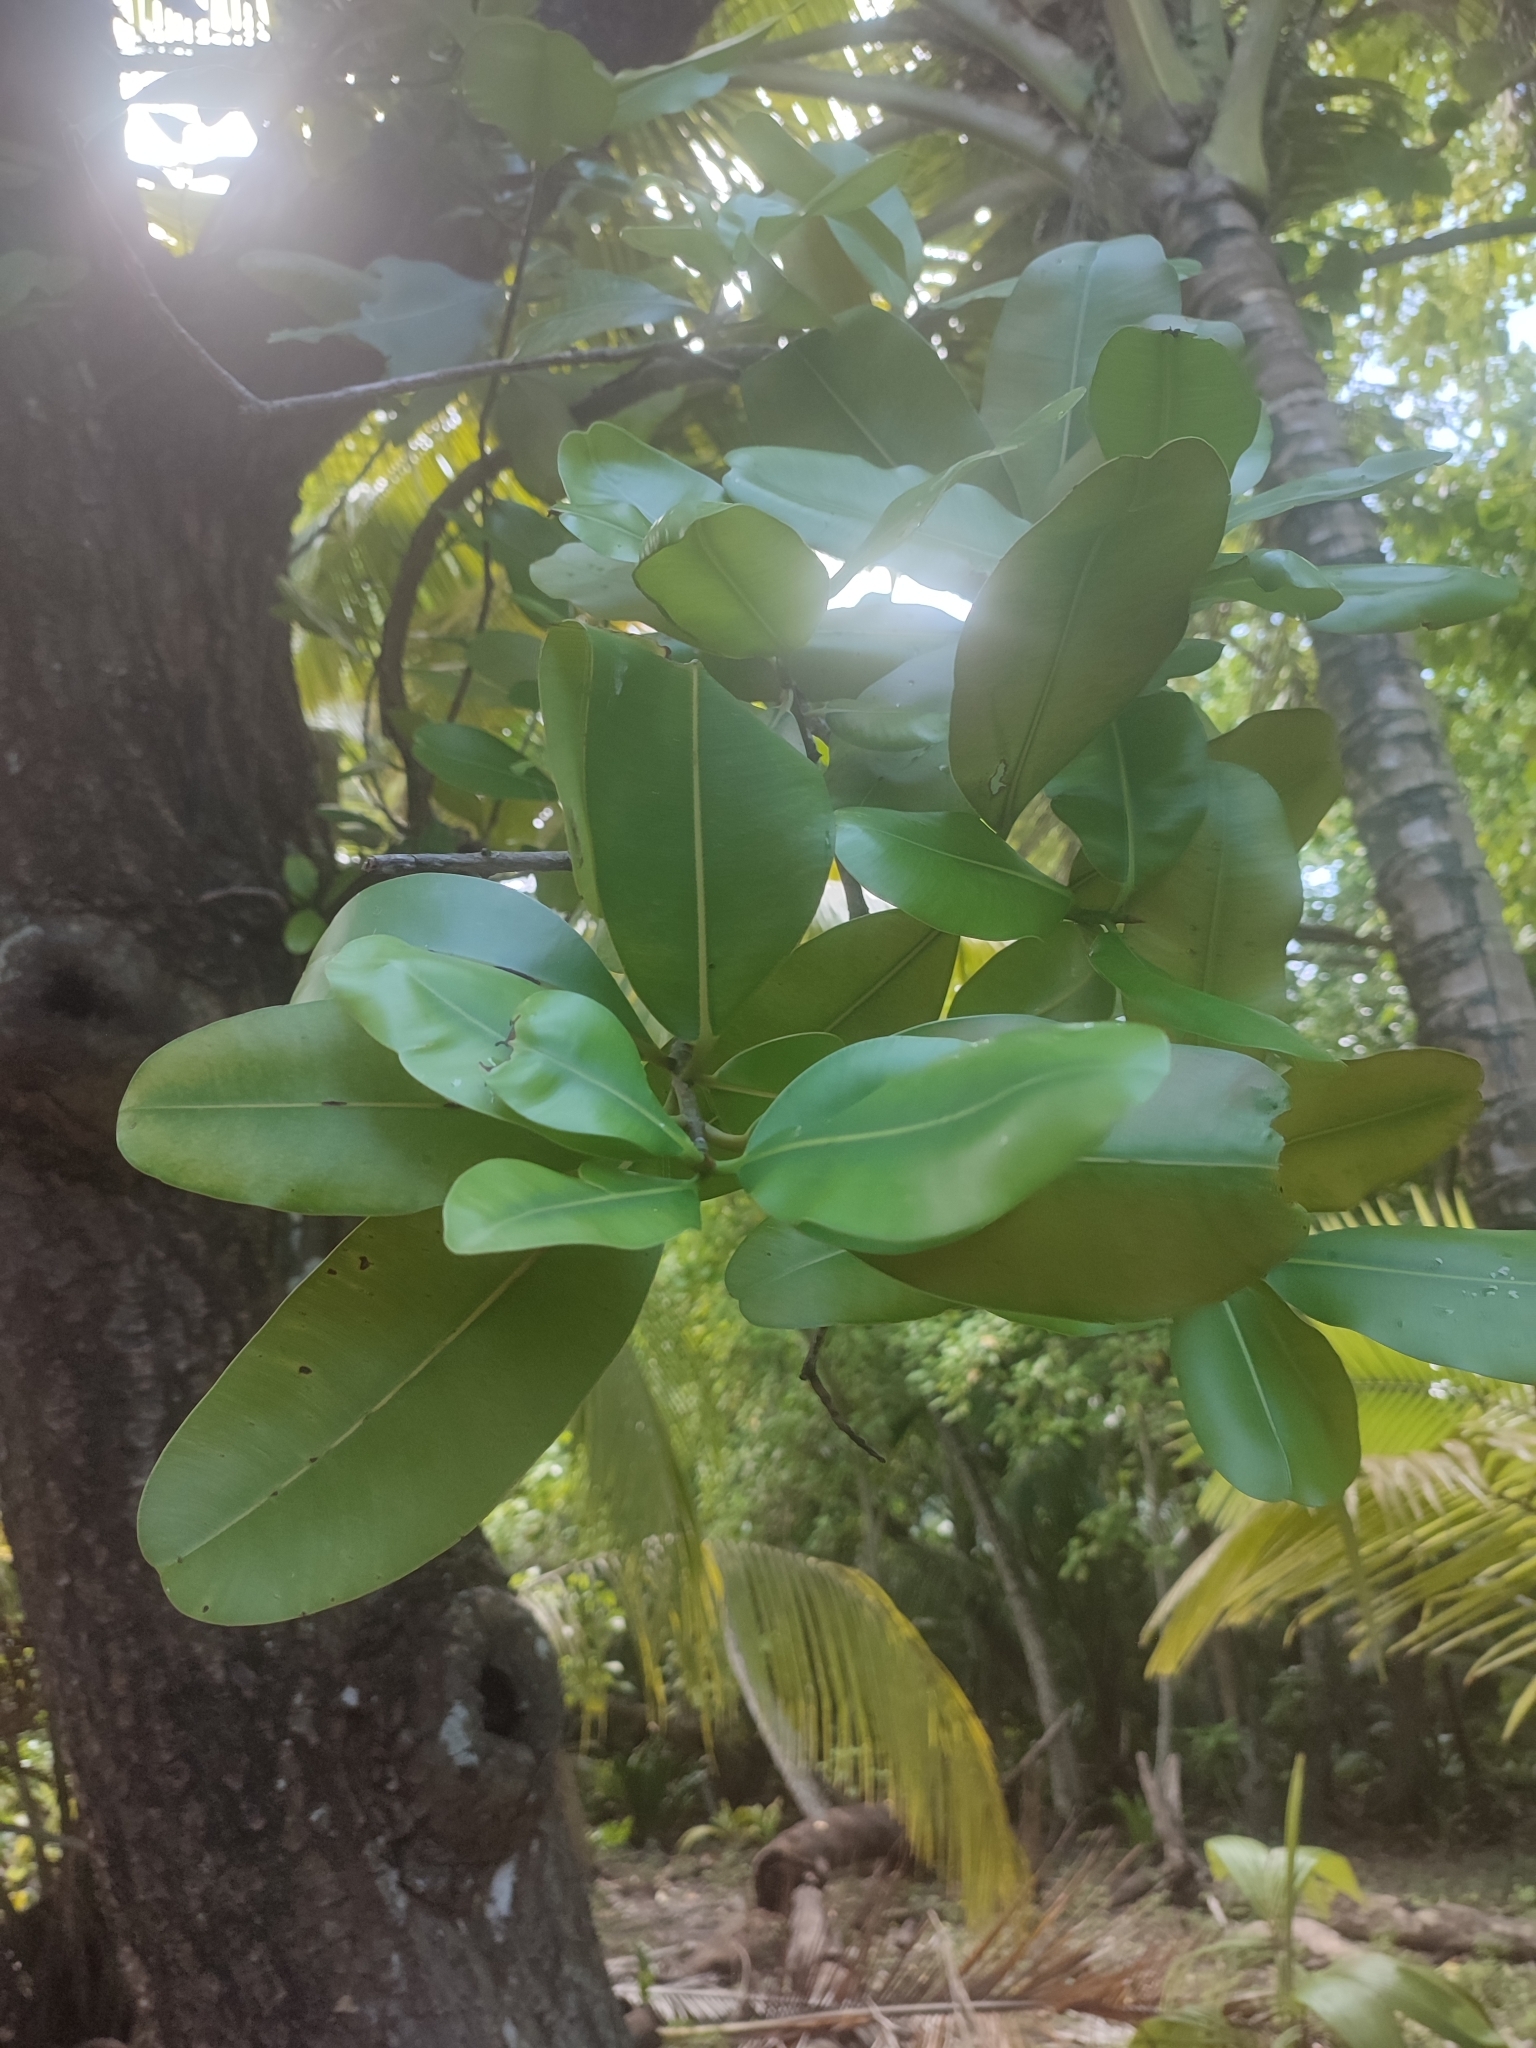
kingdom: Plantae
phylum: Tracheophyta
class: Magnoliopsida
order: Malpighiales
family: Calophyllaceae
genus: Calophyllum
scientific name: Calophyllum inophyllum
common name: Alexandrian laurel
